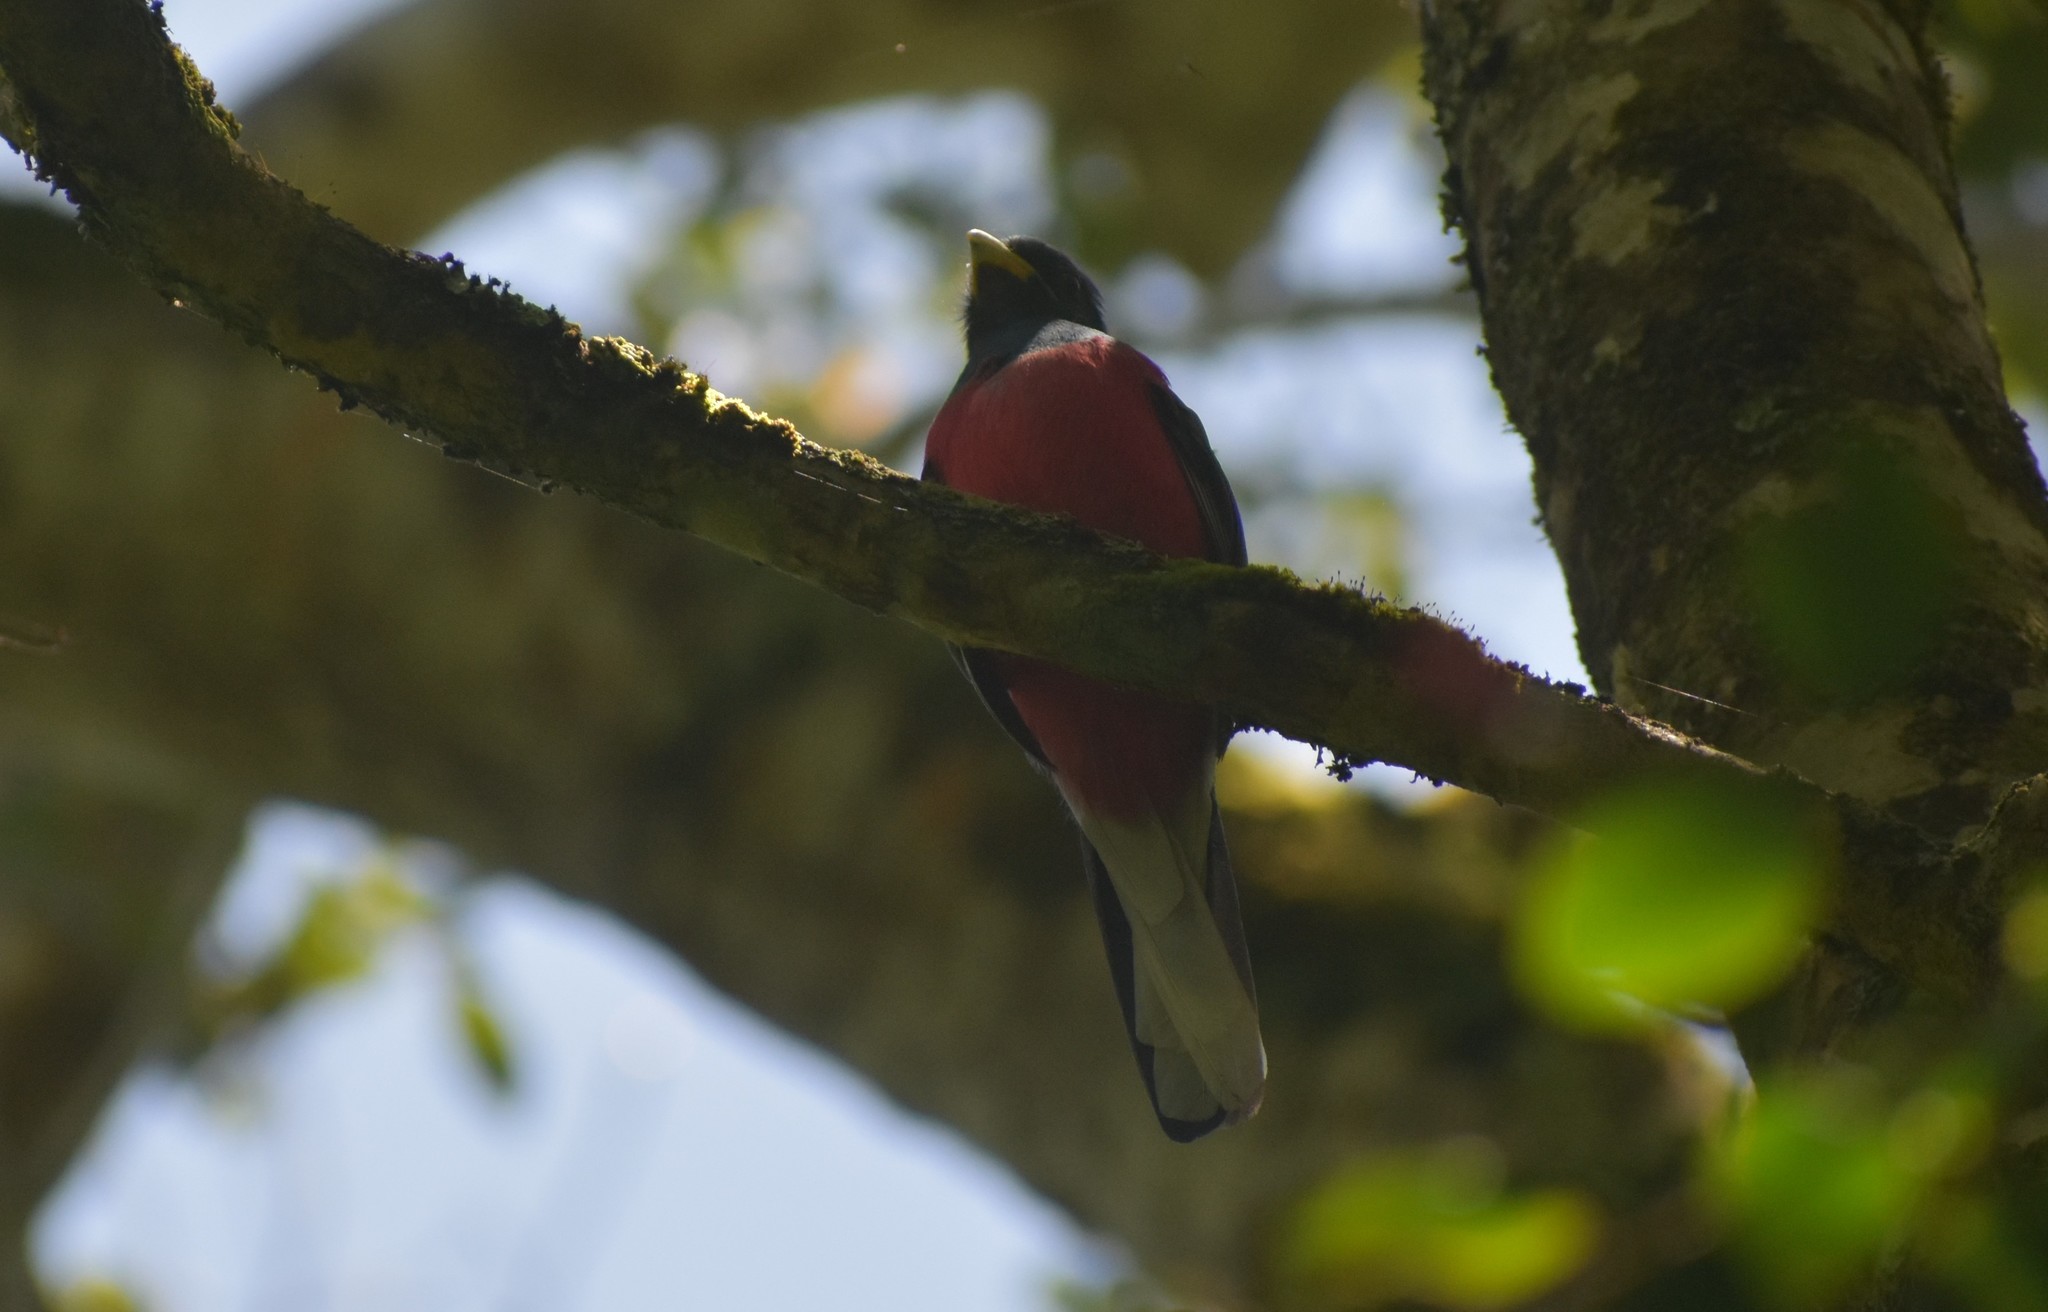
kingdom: Animalia
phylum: Chordata
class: Aves
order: Trogoniformes
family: Trogonidae
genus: Apaloderma
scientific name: Apaloderma narina
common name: Narina trogon
